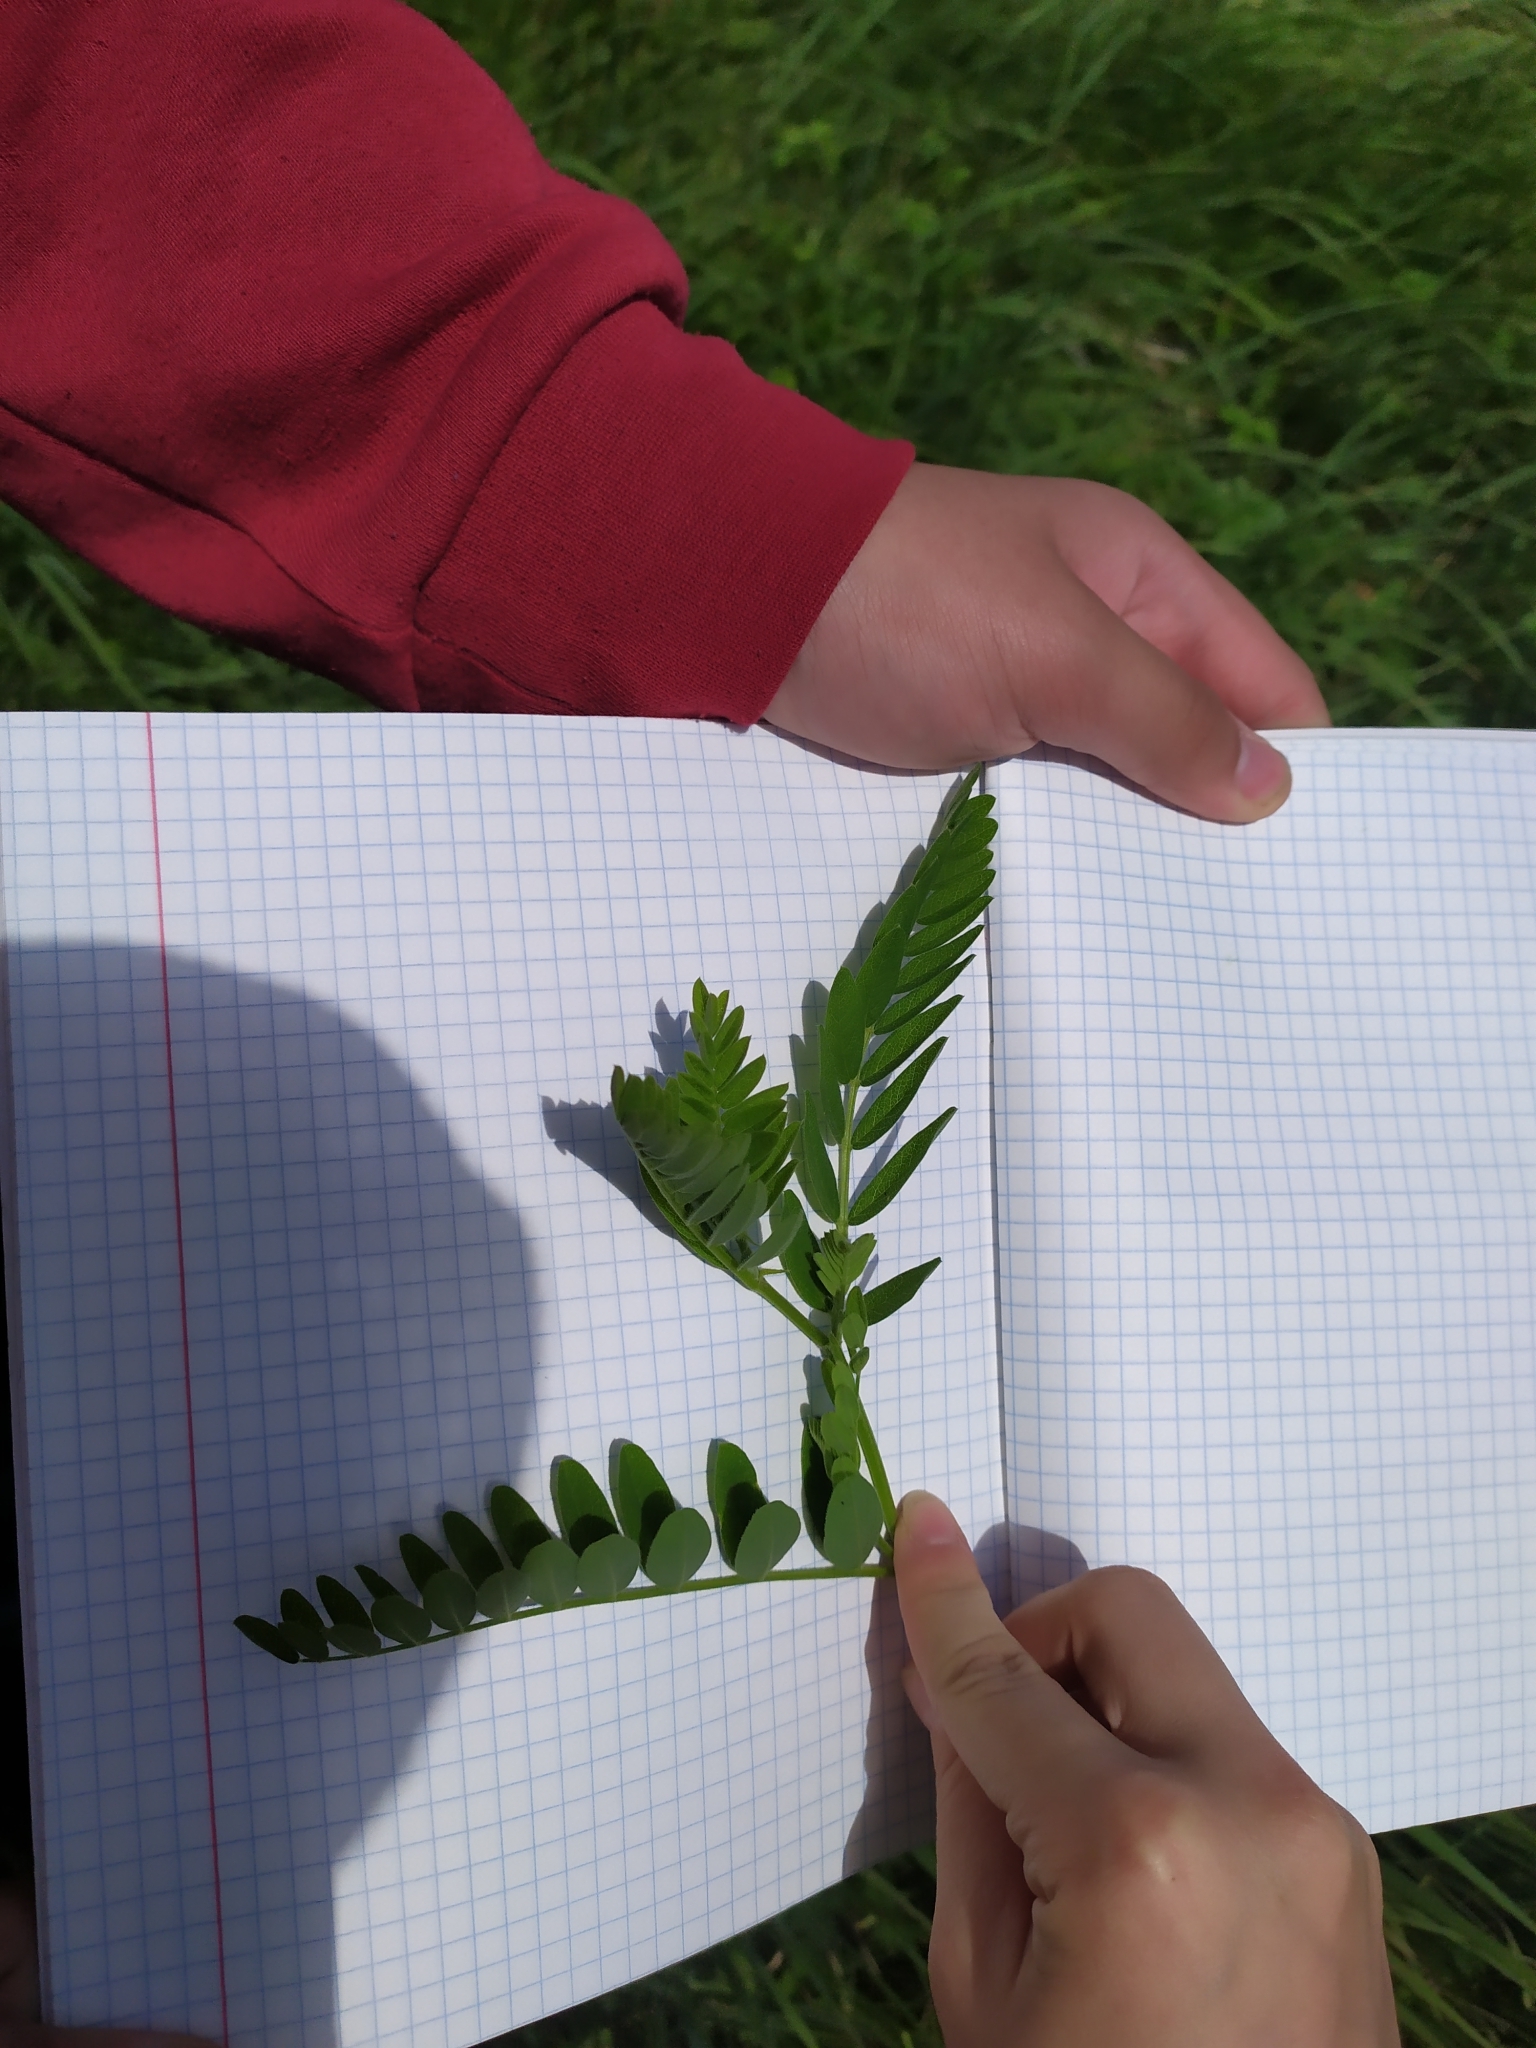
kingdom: Plantae
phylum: Tracheophyta
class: Magnoliopsida
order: Fabales
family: Fabaceae
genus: Astragalus
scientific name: Astragalus cicer
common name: Chick-pea milk-vetch
